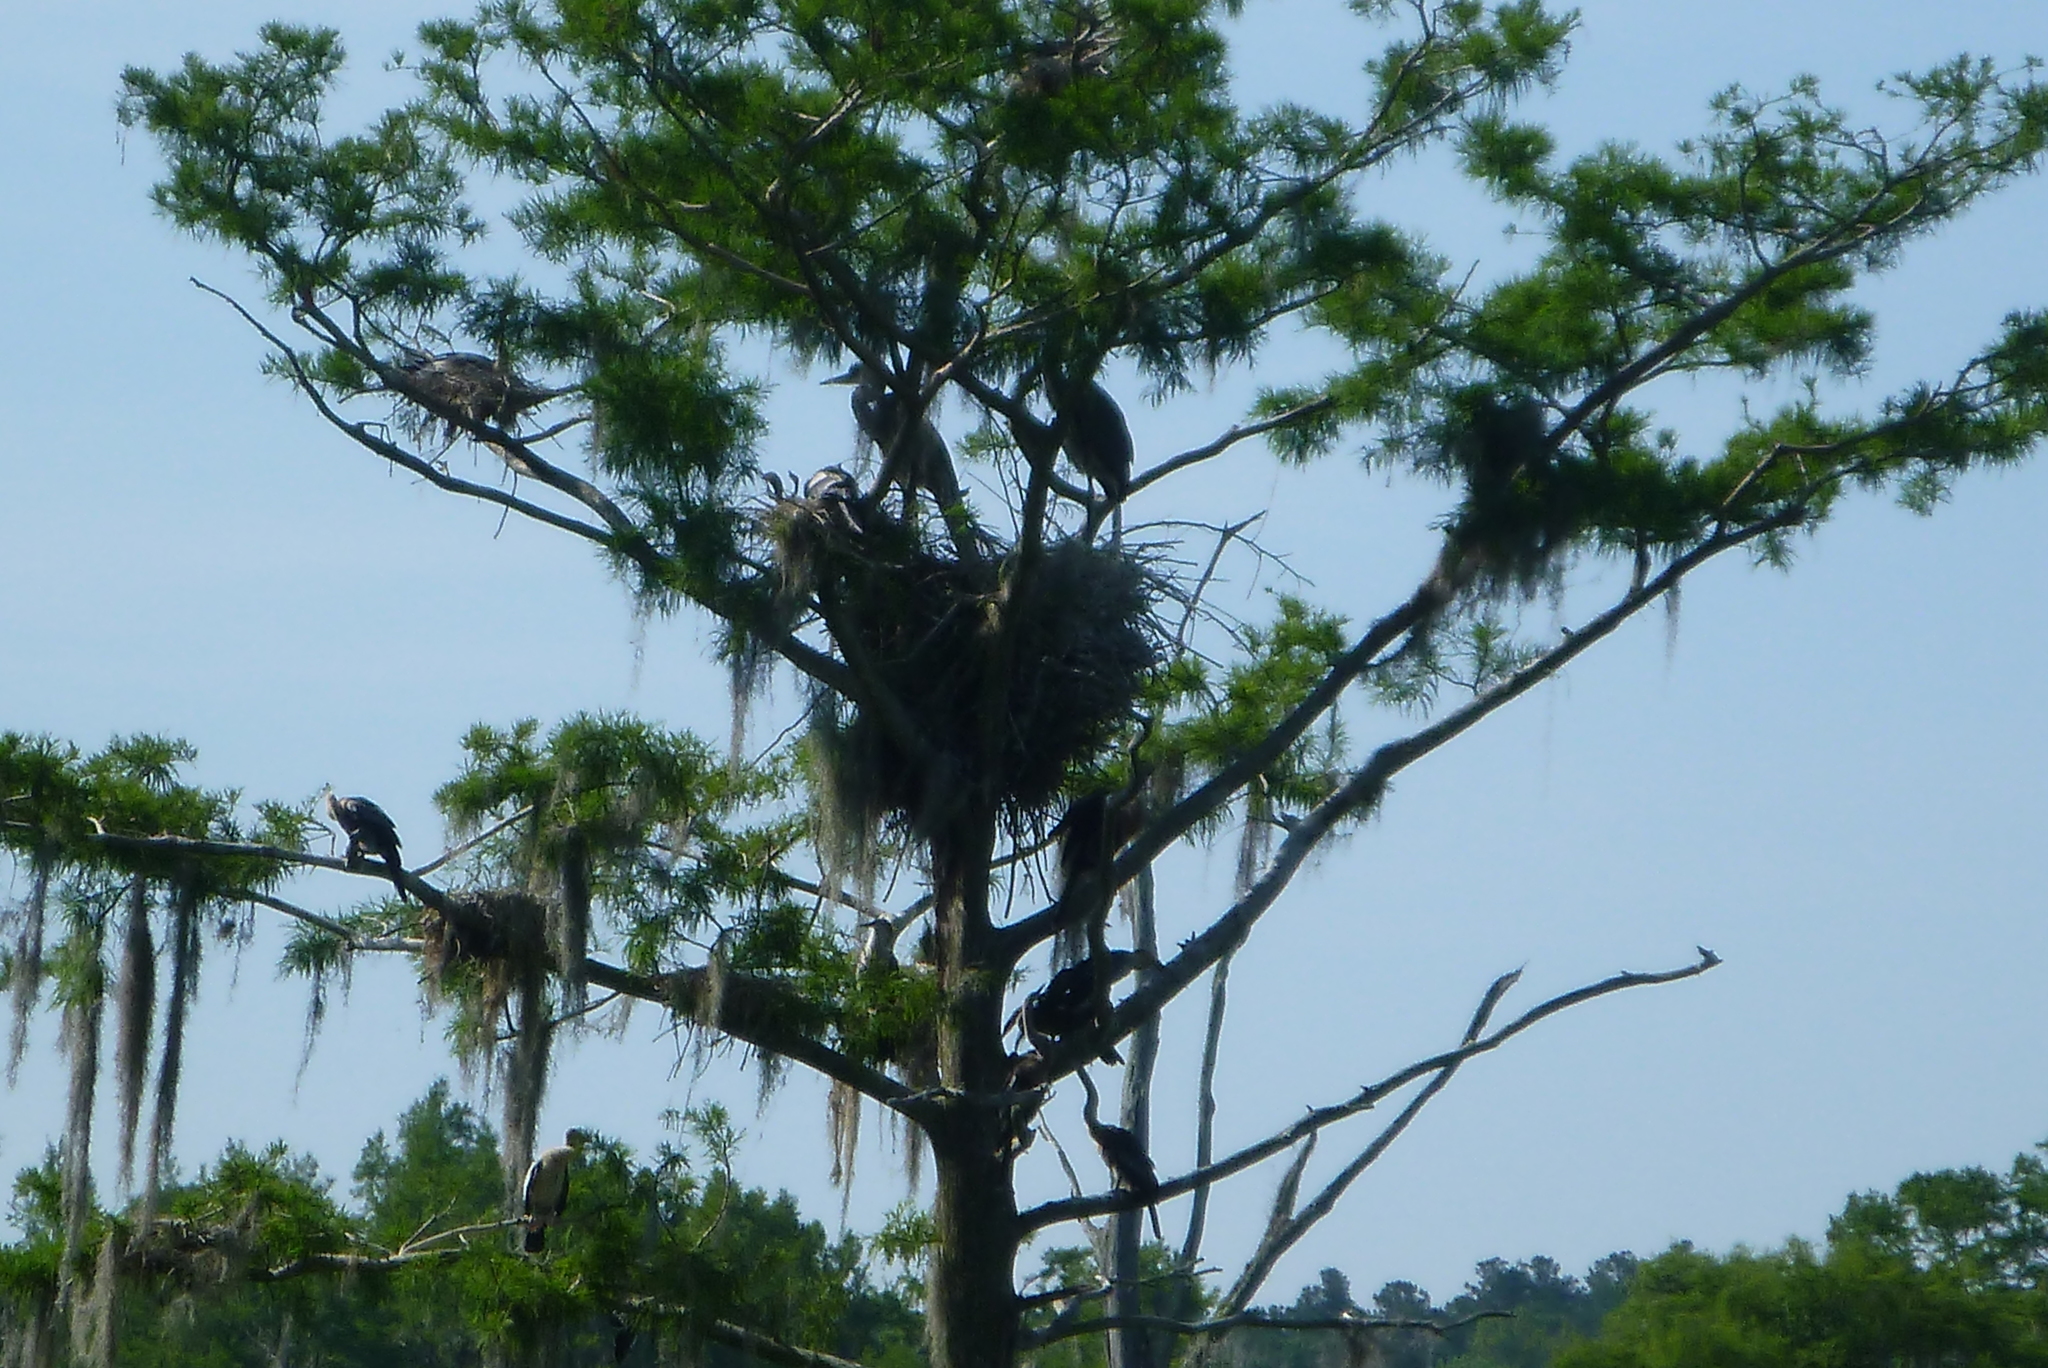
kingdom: Animalia
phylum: Chordata
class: Aves
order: Pelecaniformes
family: Ardeidae
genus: Ardea
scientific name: Ardea herodias
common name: Great blue heron
